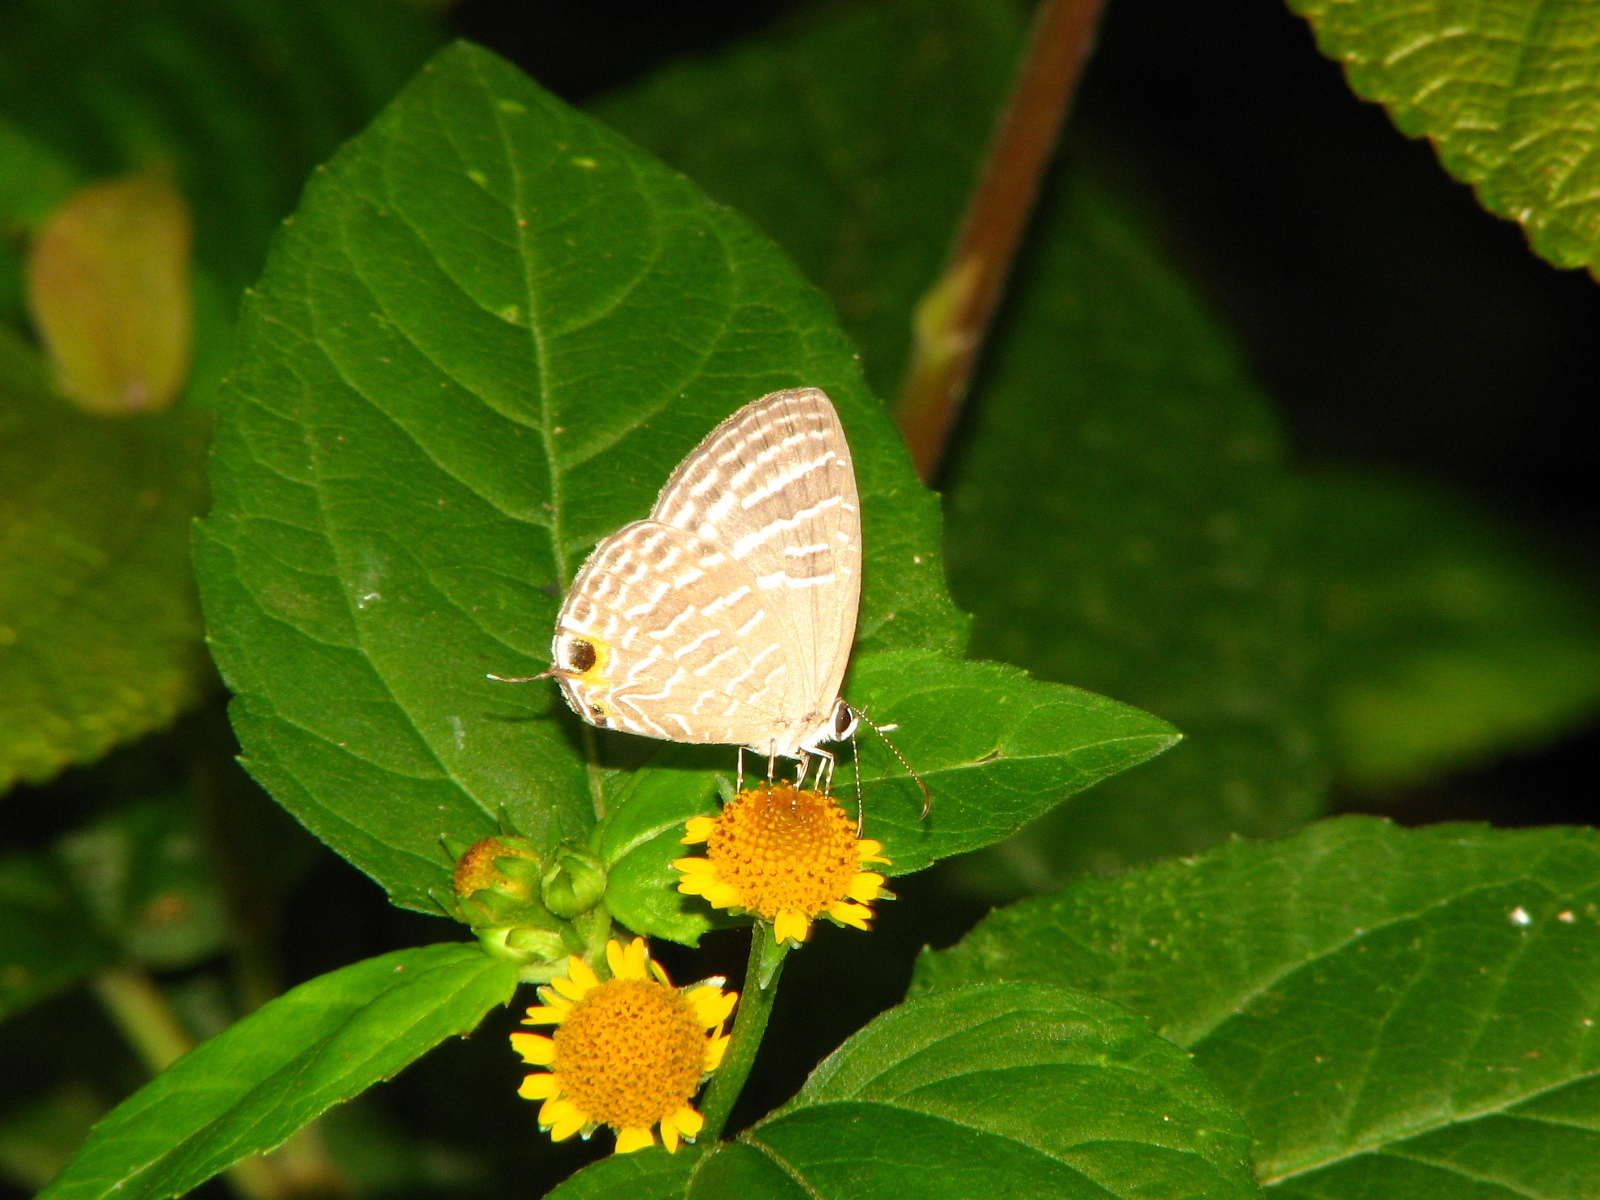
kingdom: Animalia
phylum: Arthropoda
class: Insecta
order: Lepidoptera
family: Lycaenidae
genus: Jamides
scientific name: Jamides celeno
